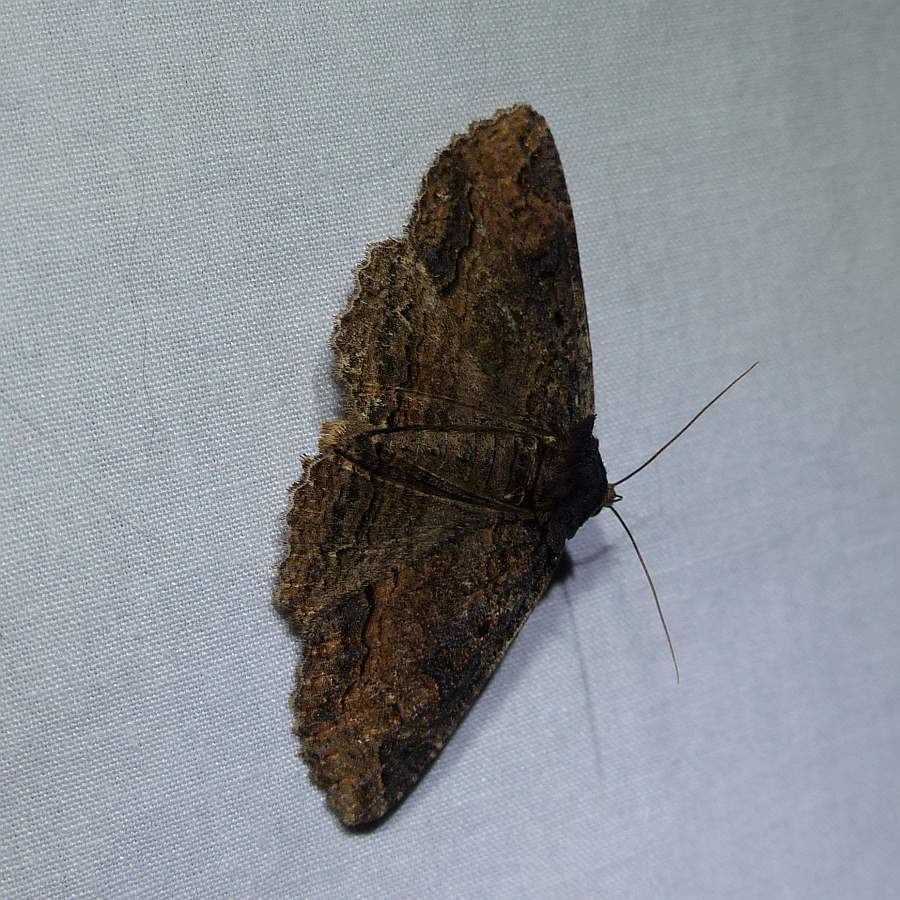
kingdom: Animalia
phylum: Arthropoda
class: Insecta
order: Lepidoptera
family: Erebidae
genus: Zale
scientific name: Zale minerea
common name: Colorful zale moth
